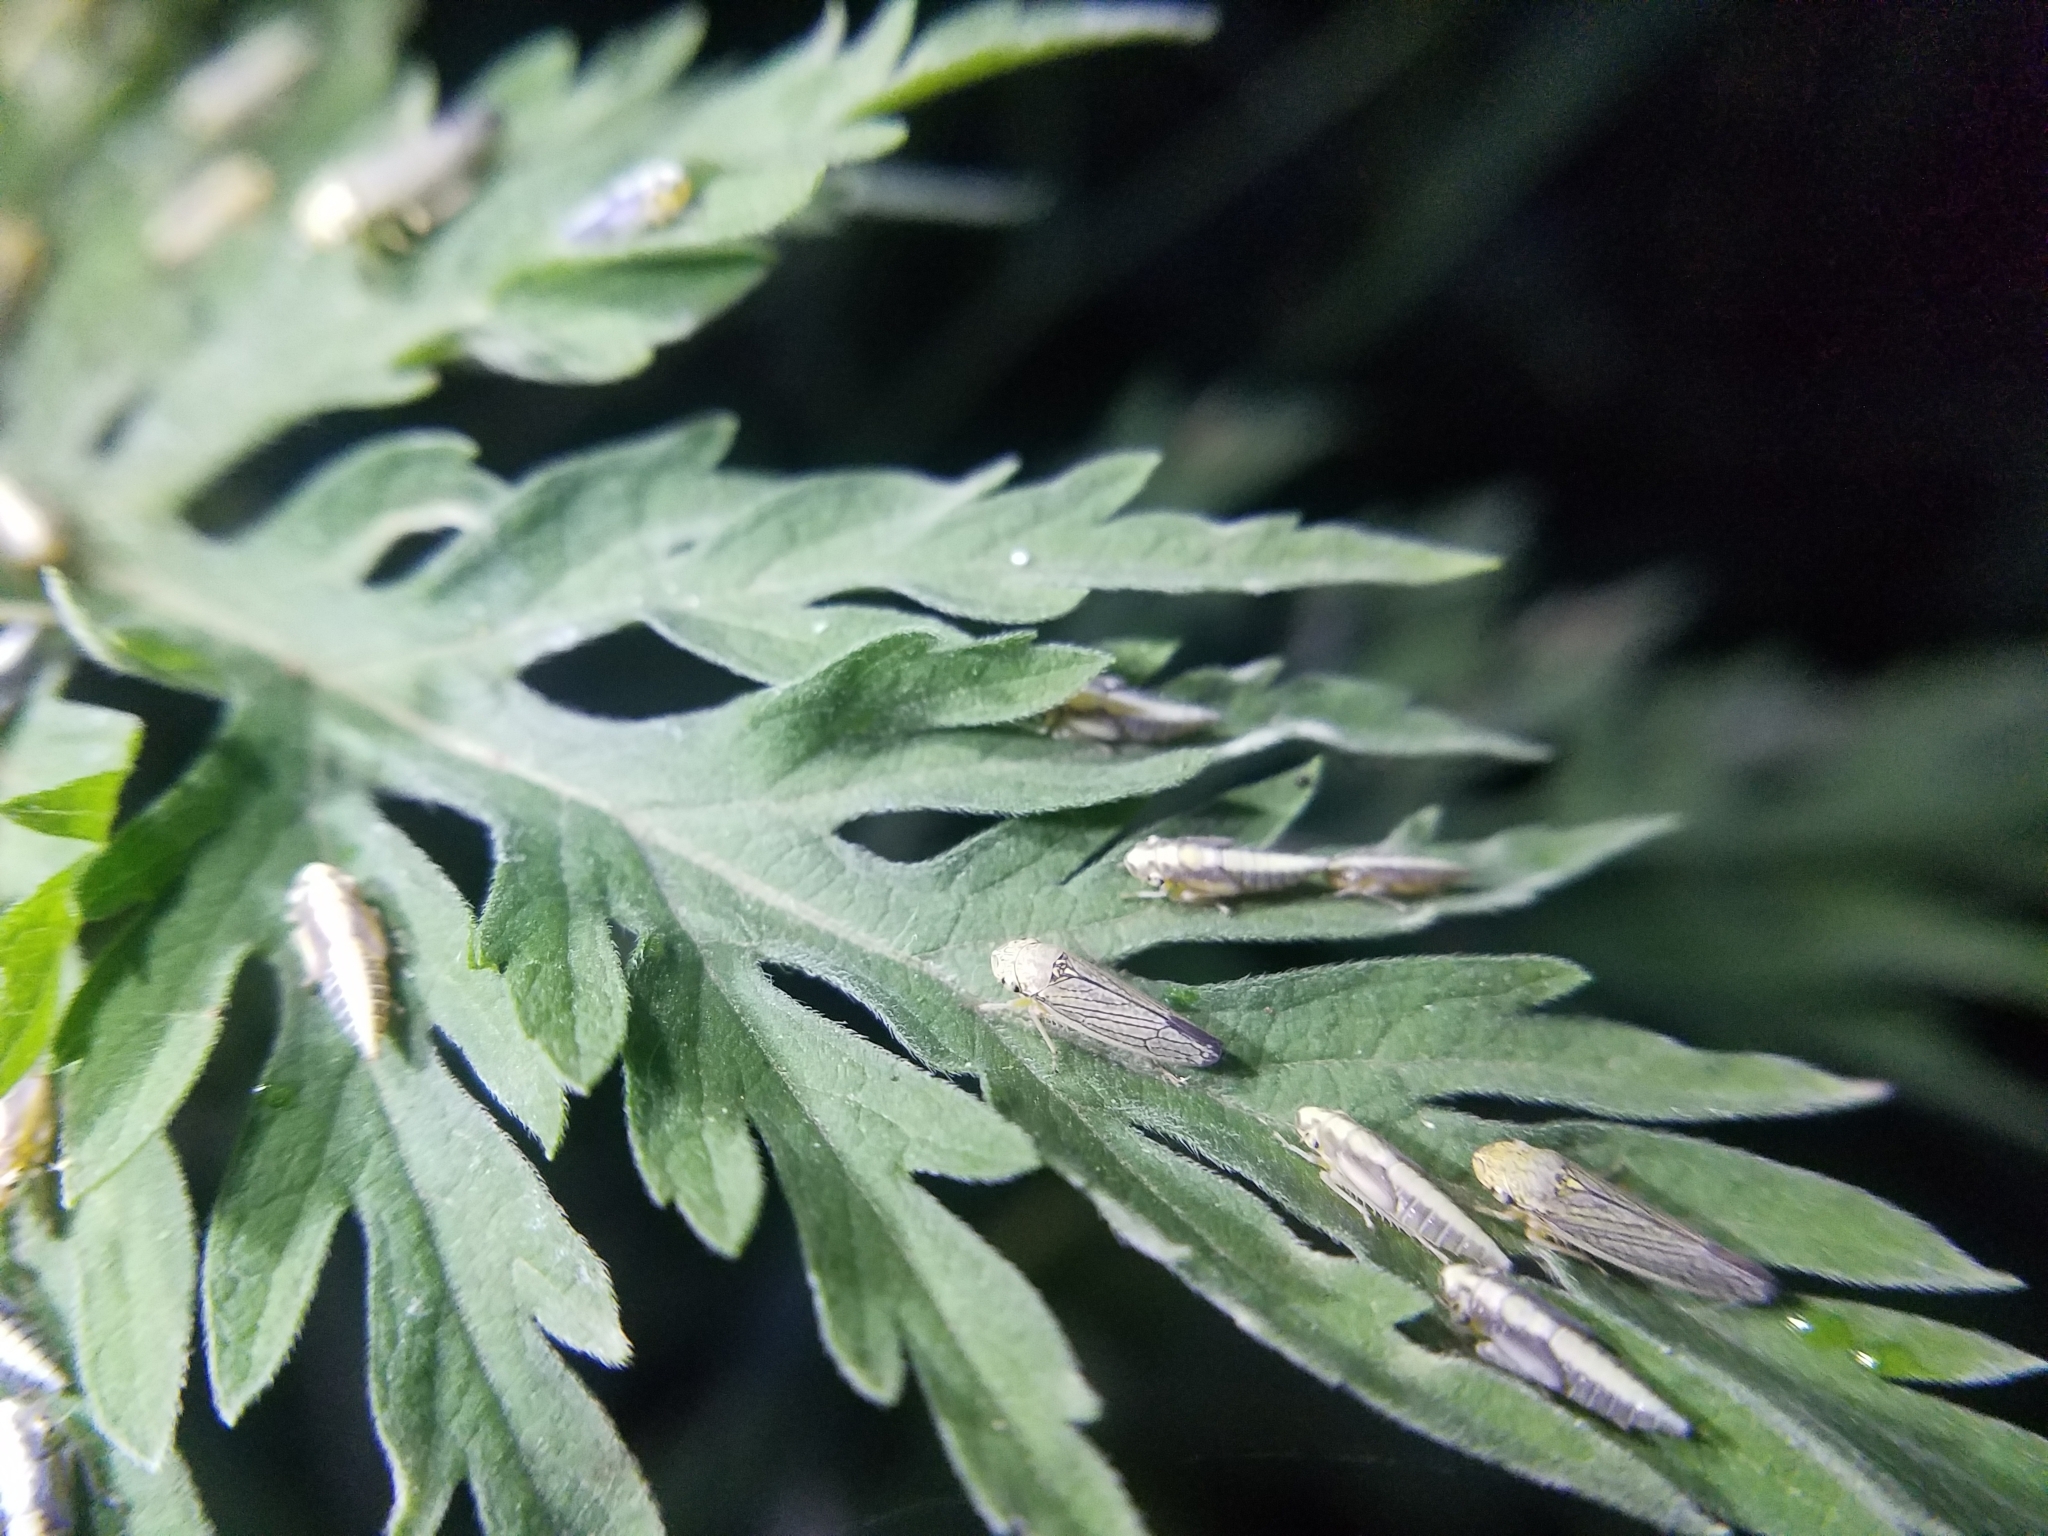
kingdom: Animalia
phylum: Arthropoda
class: Insecta
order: Hemiptera
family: Cicadellidae
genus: Graphocephala
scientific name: Graphocephala confluens
